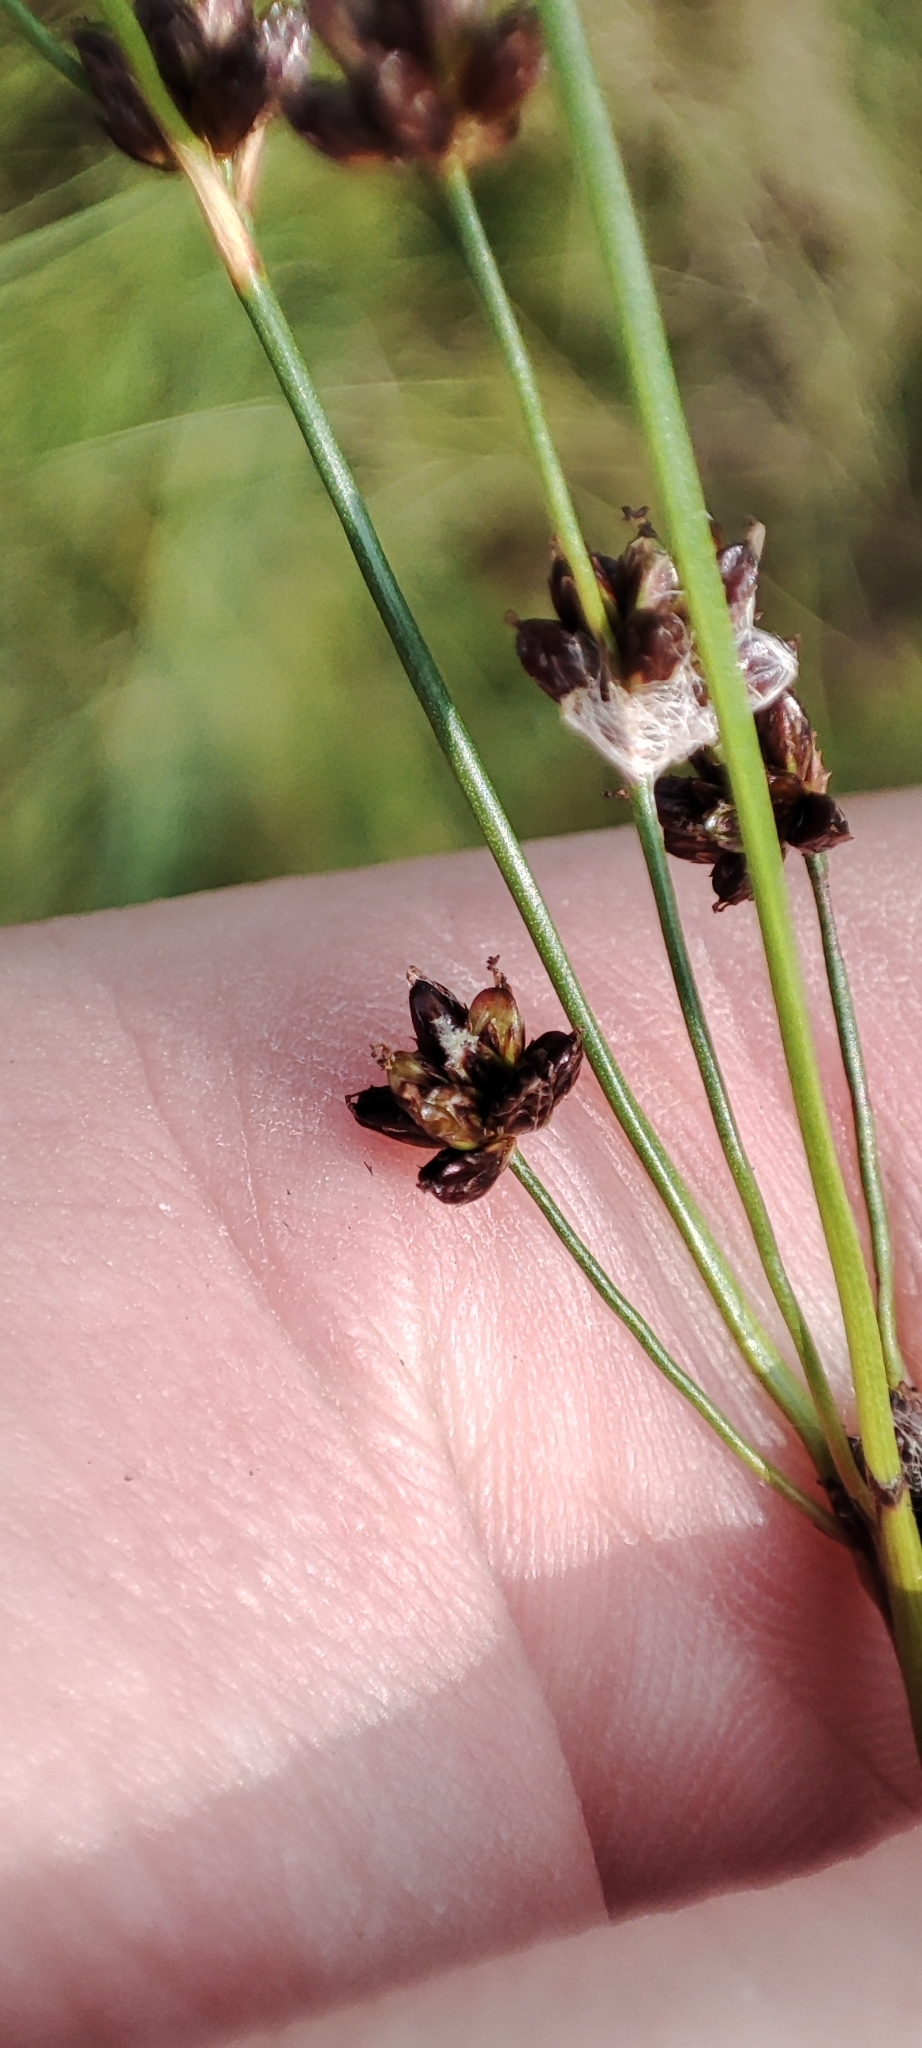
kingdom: Plantae
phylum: Tracheophyta
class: Liliopsida
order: Poales
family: Juncaceae
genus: Juncus
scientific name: Juncus alpinoarticulatus
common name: Alpine rush
